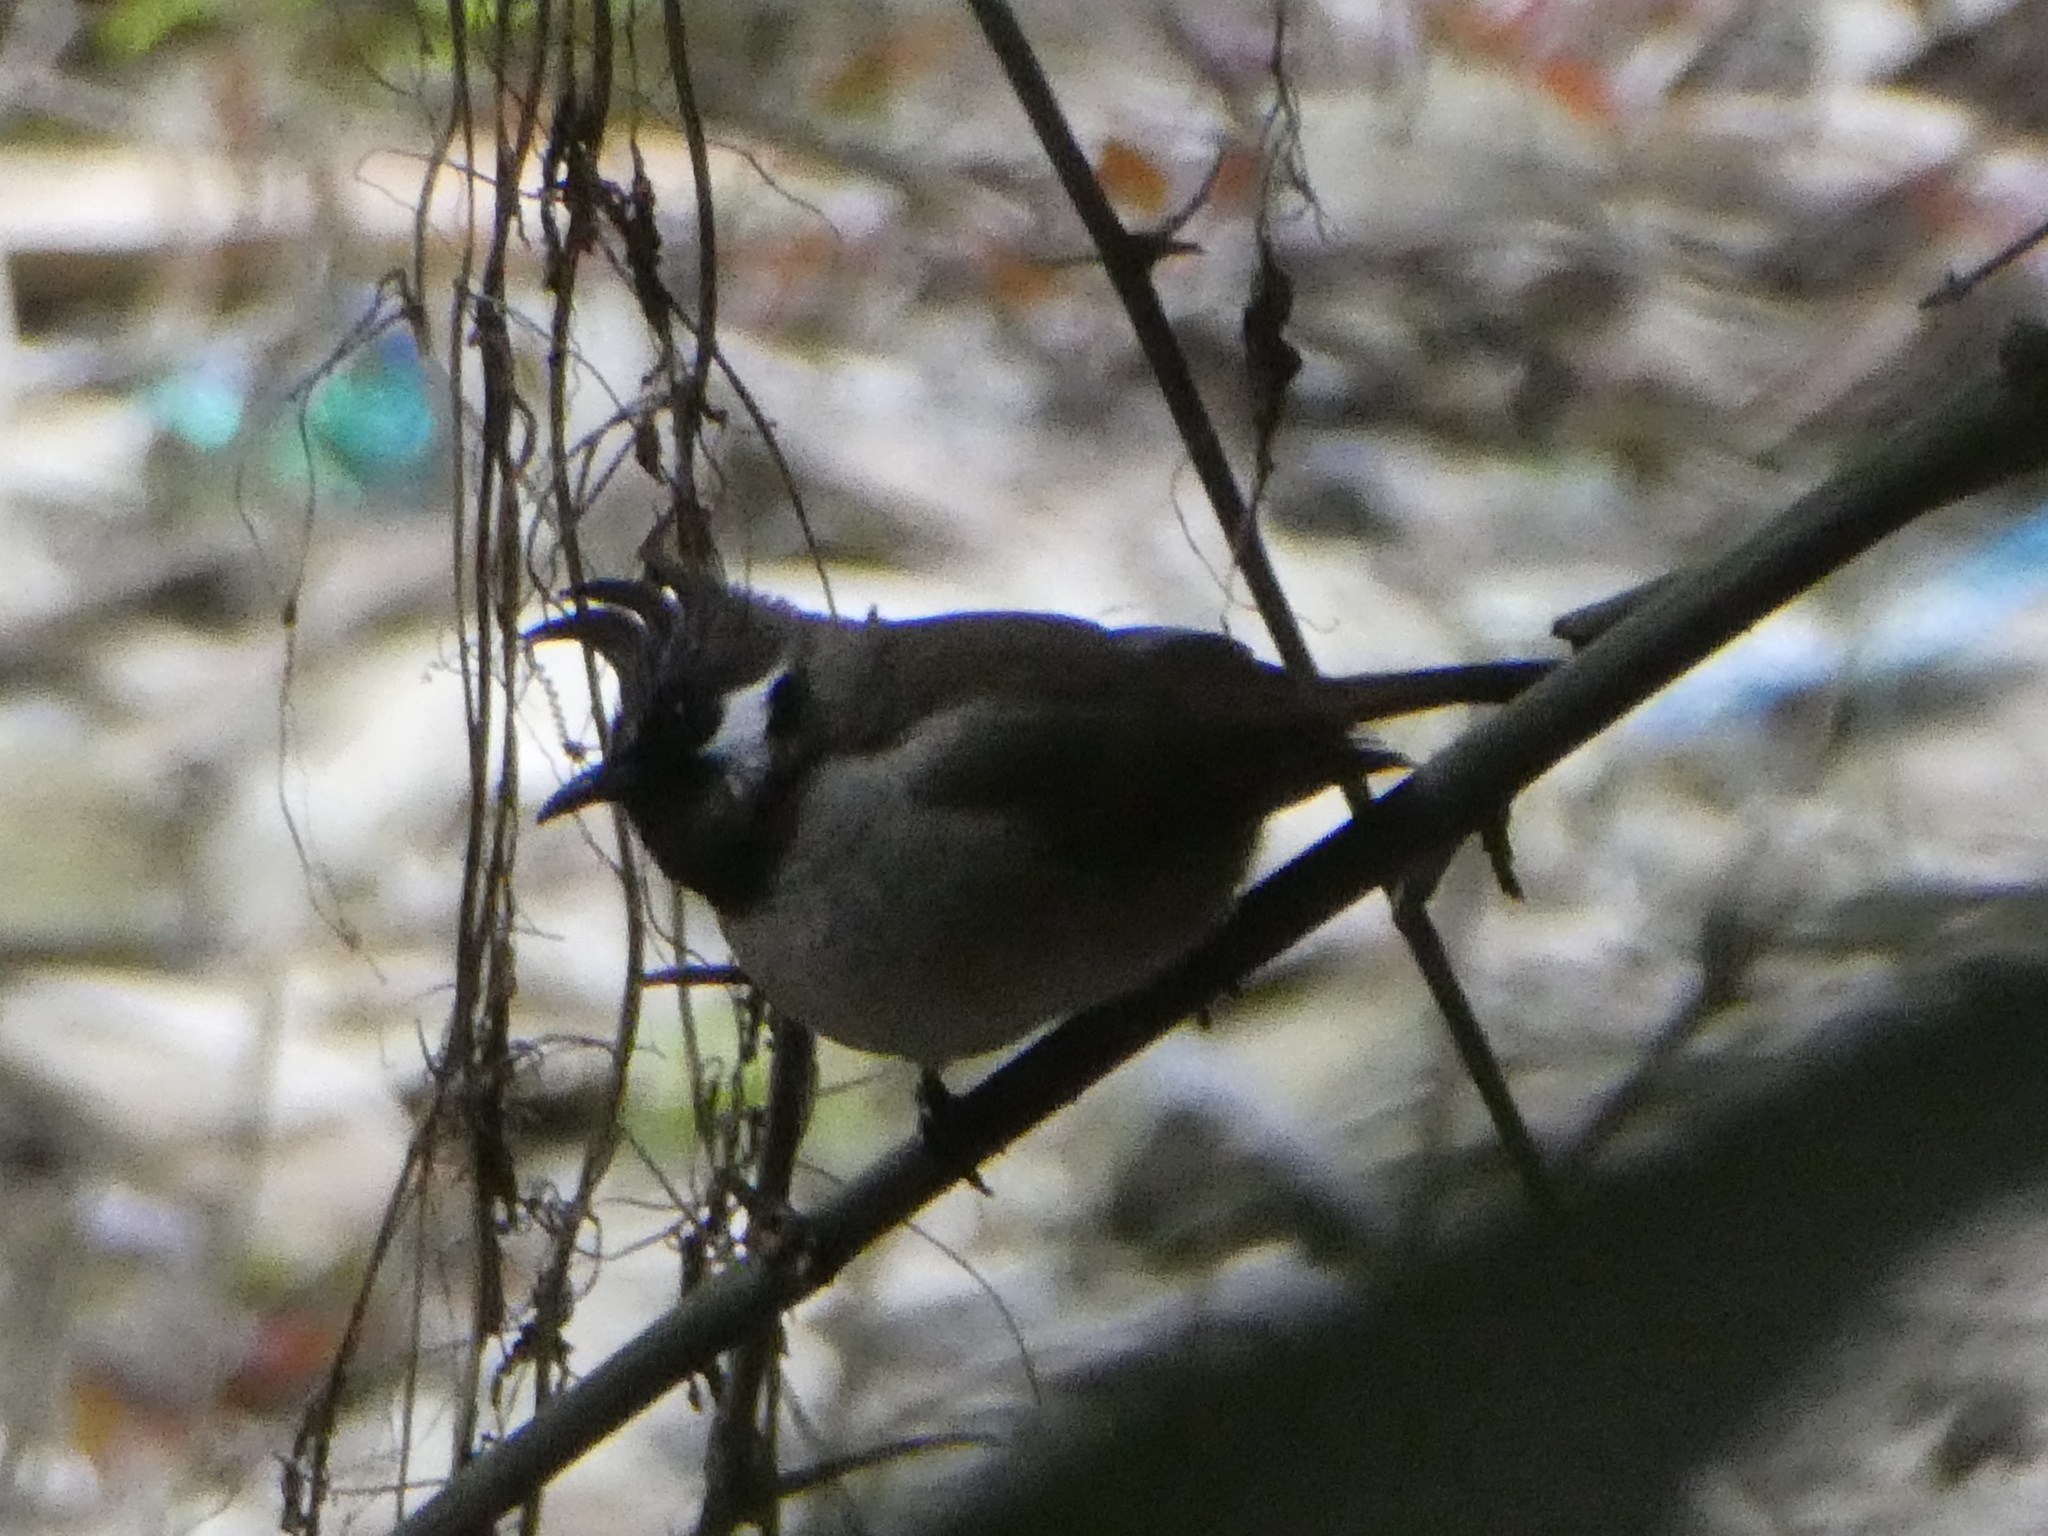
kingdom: Animalia
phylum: Chordata
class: Aves
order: Passeriformes
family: Pycnonotidae
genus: Pycnonotus
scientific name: Pycnonotus leucogenys
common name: Himalayan bulbul
